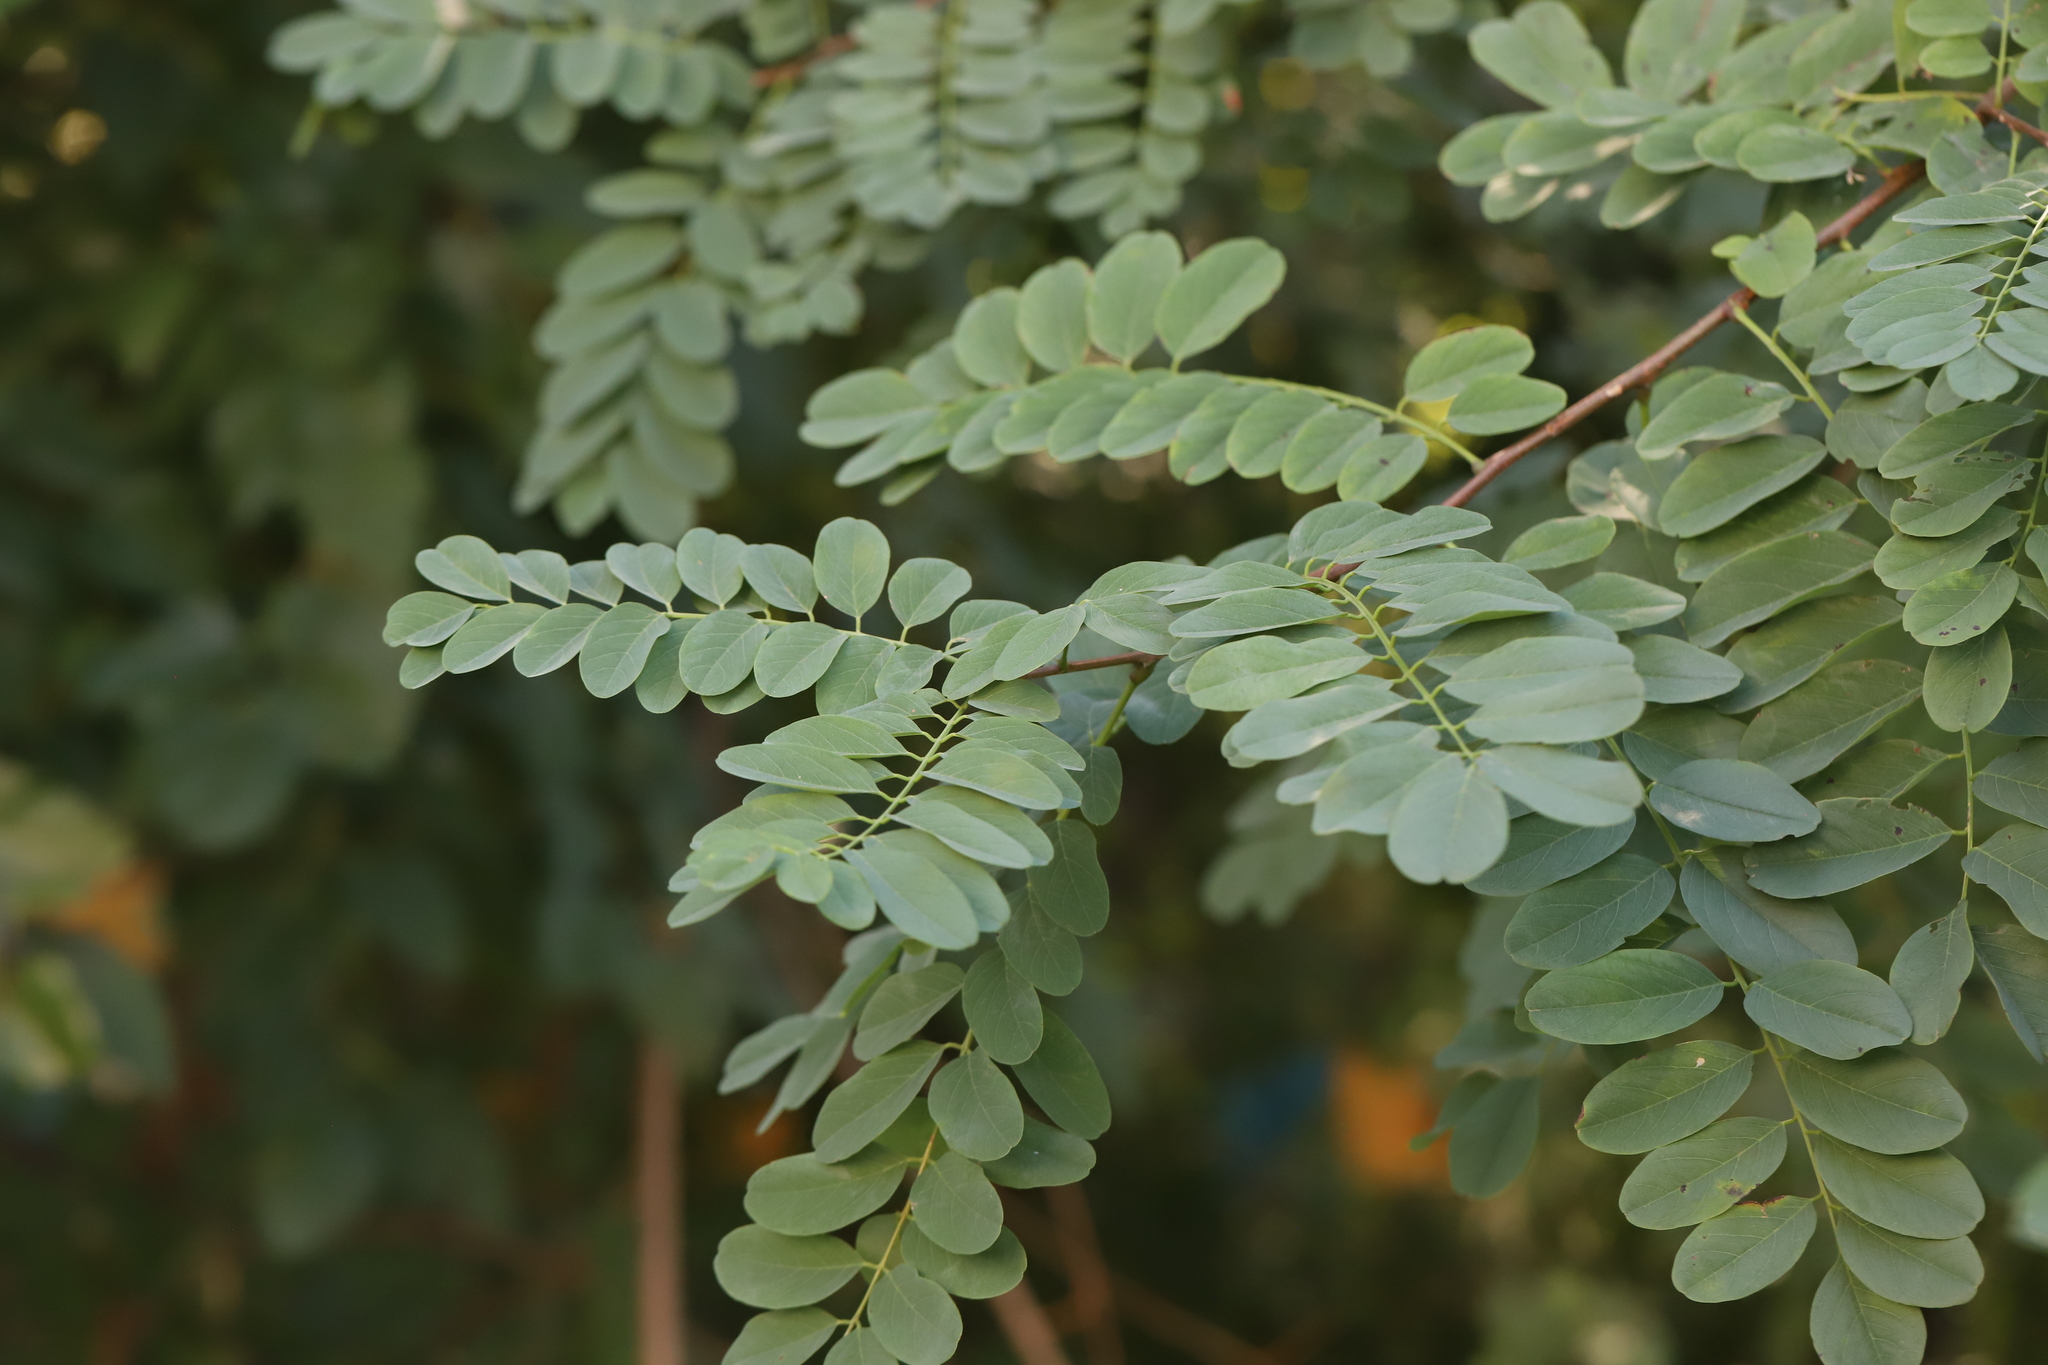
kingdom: Plantae
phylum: Tracheophyta
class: Magnoliopsida
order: Fabales
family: Fabaceae
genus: Robinia
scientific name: Robinia pseudoacacia
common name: Black locust
